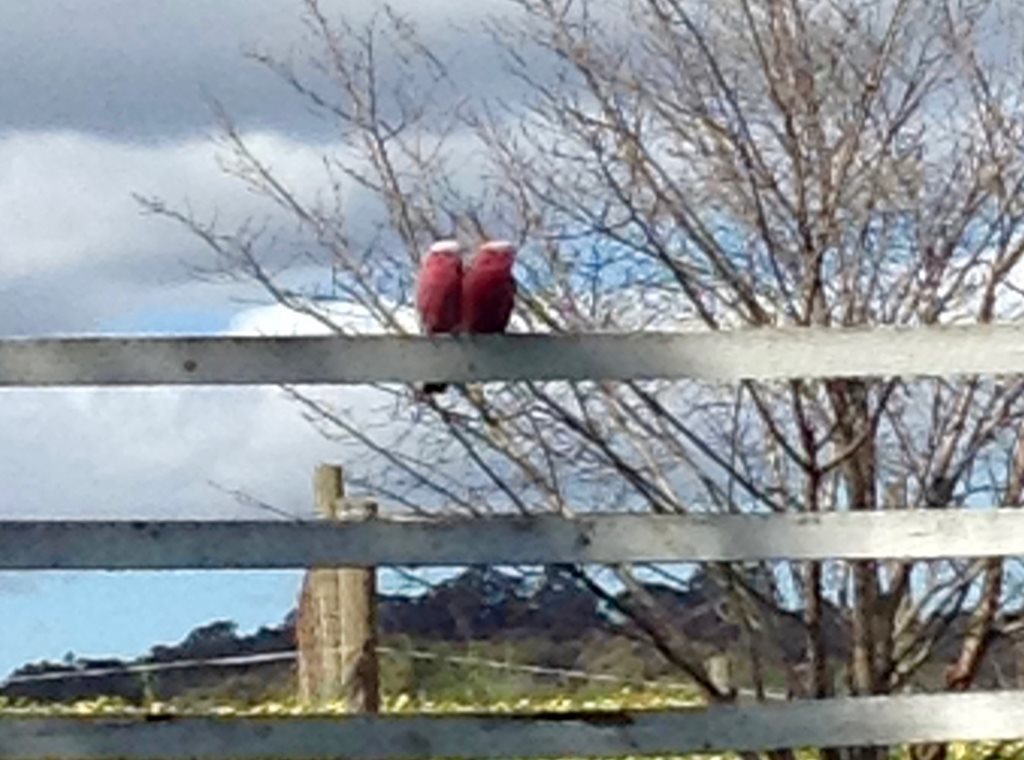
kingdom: Animalia
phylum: Chordata
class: Aves
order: Psittaciformes
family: Psittacidae
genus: Eolophus
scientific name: Eolophus roseicapilla
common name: Galah
